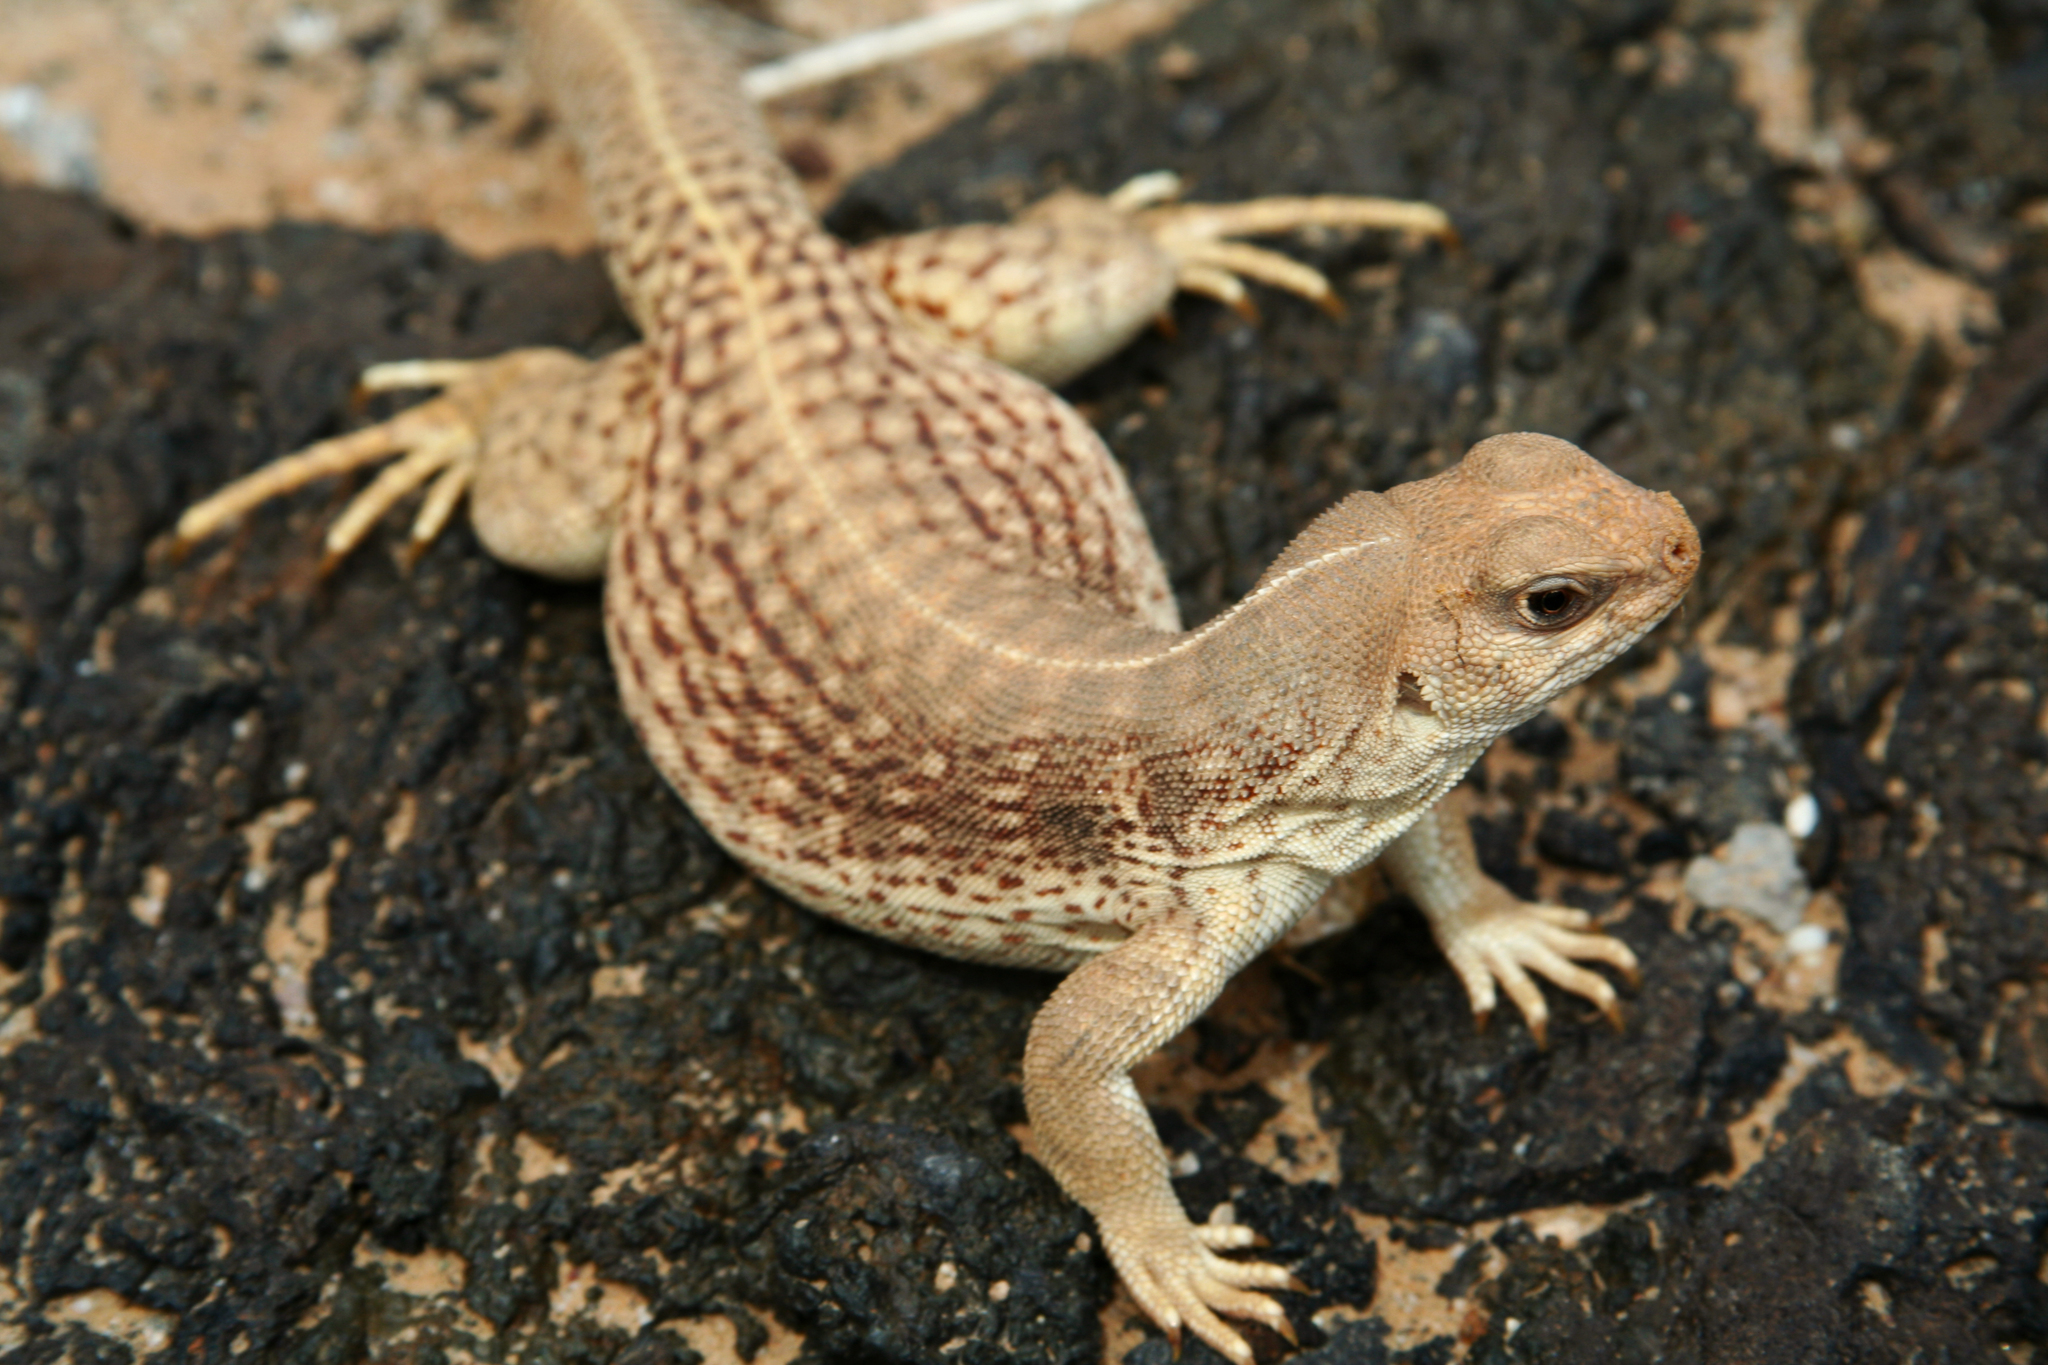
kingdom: Animalia
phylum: Chordata
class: Squamata
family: Iguanidae
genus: Dipsosaurus
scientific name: Dipsosaurus dorsalis
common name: Desert iguana
